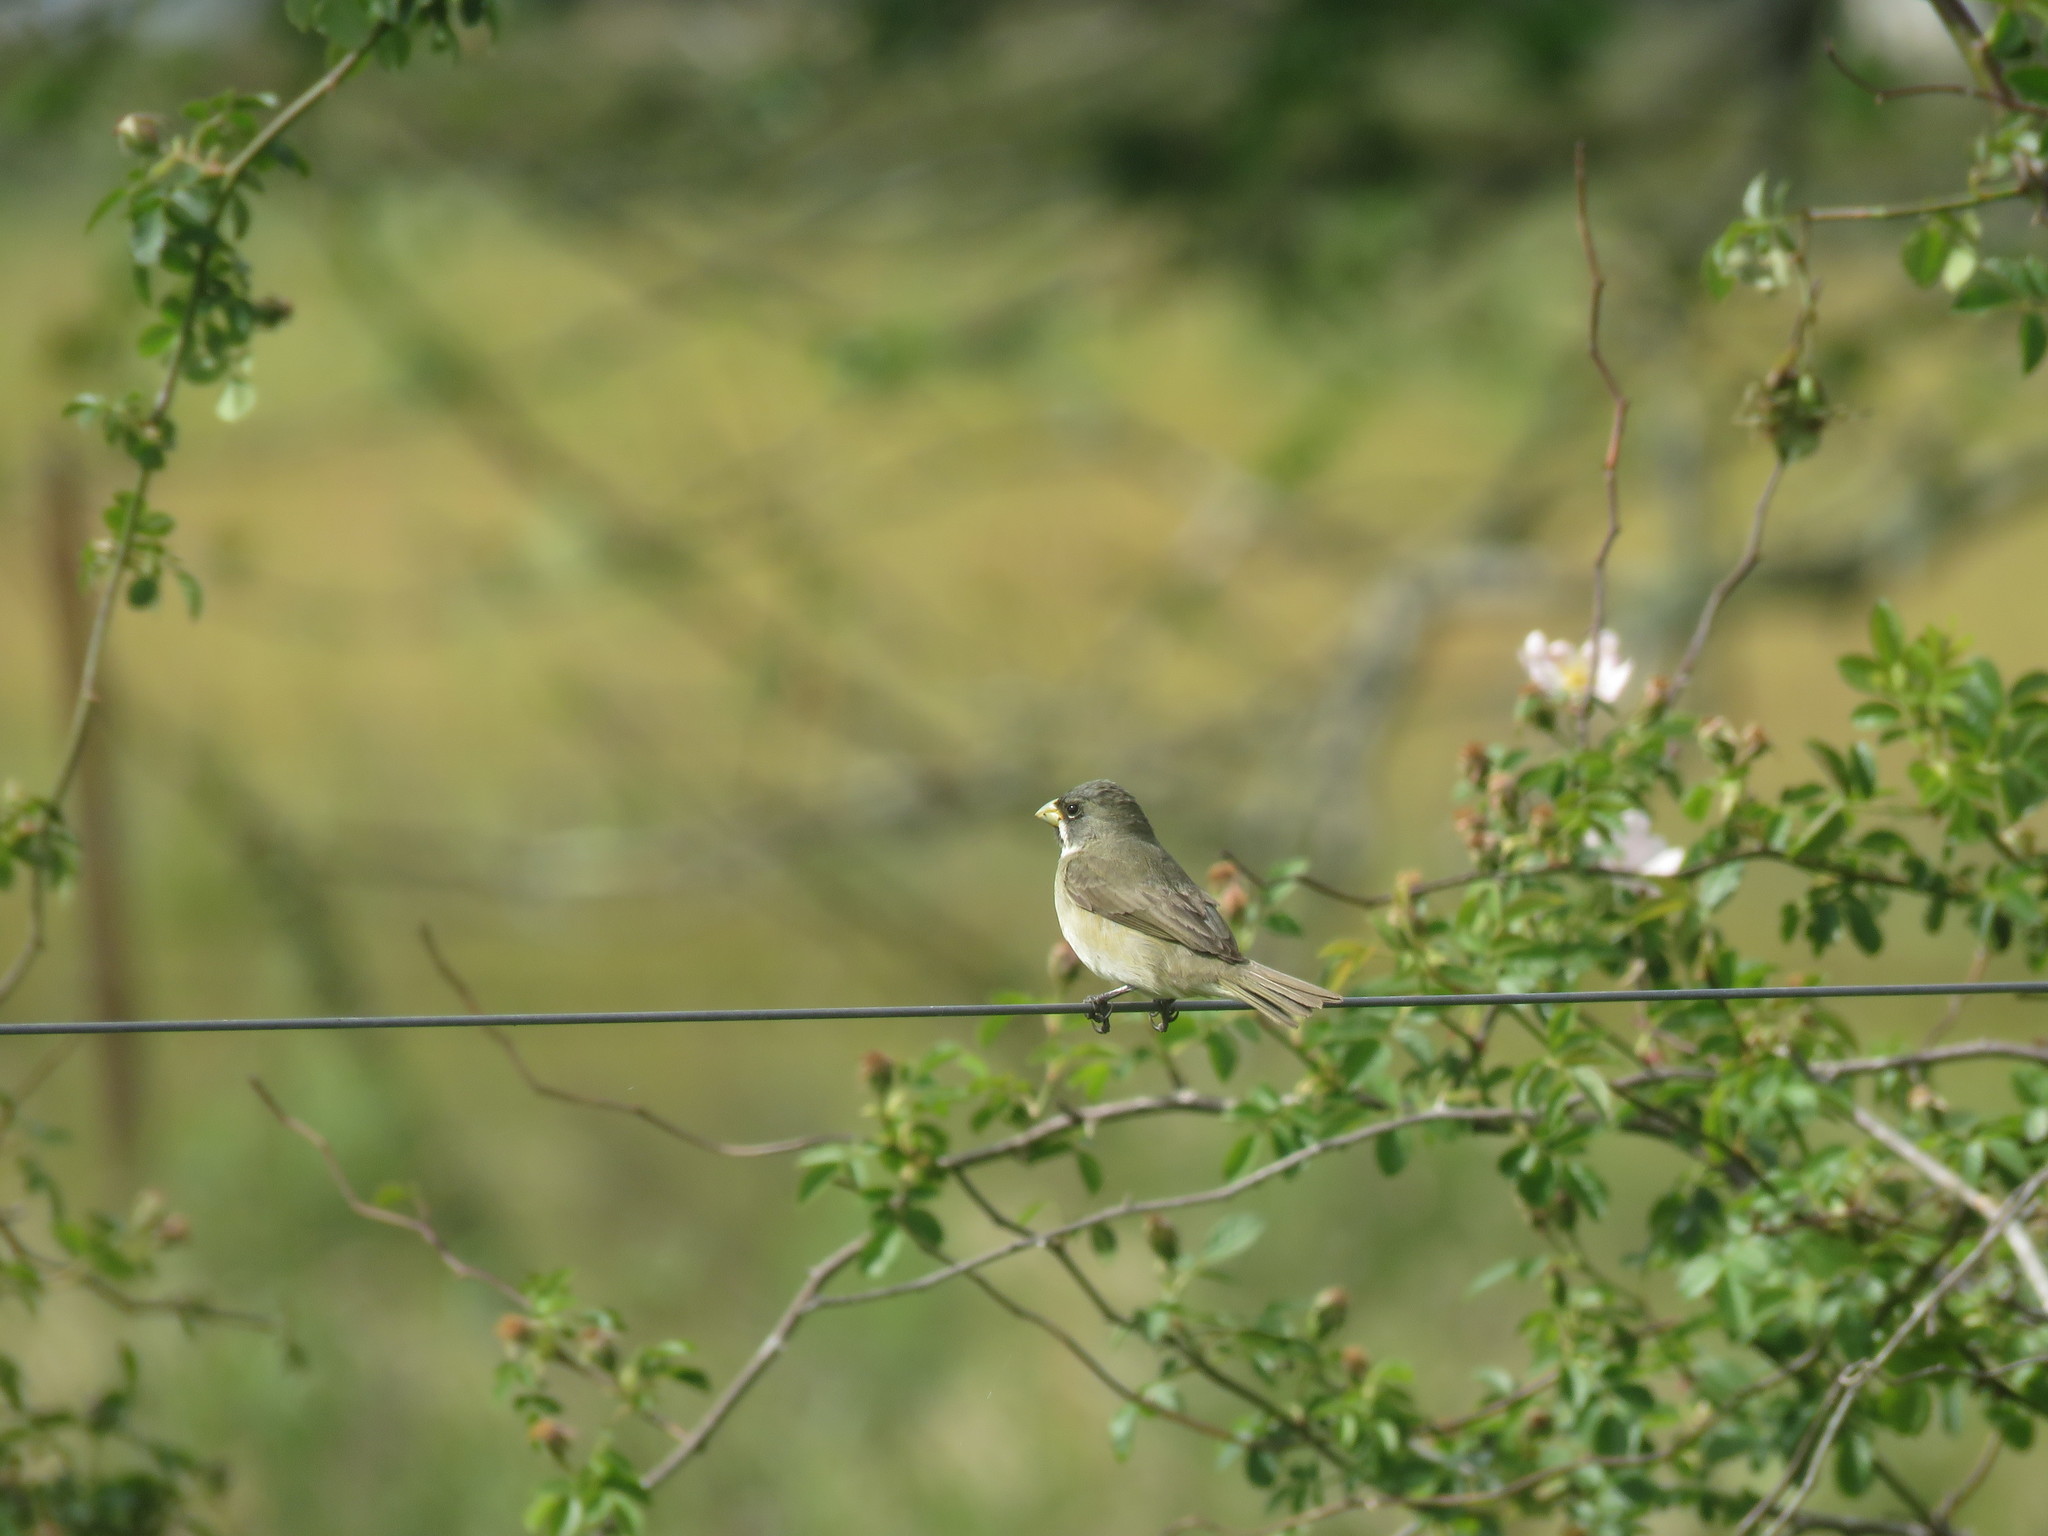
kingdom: Animalia
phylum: Chordata
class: Aves
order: Passeriformes
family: Thraupidae
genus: Sporophila
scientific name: Sporophila caerulescens
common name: Double-collared seedeater
